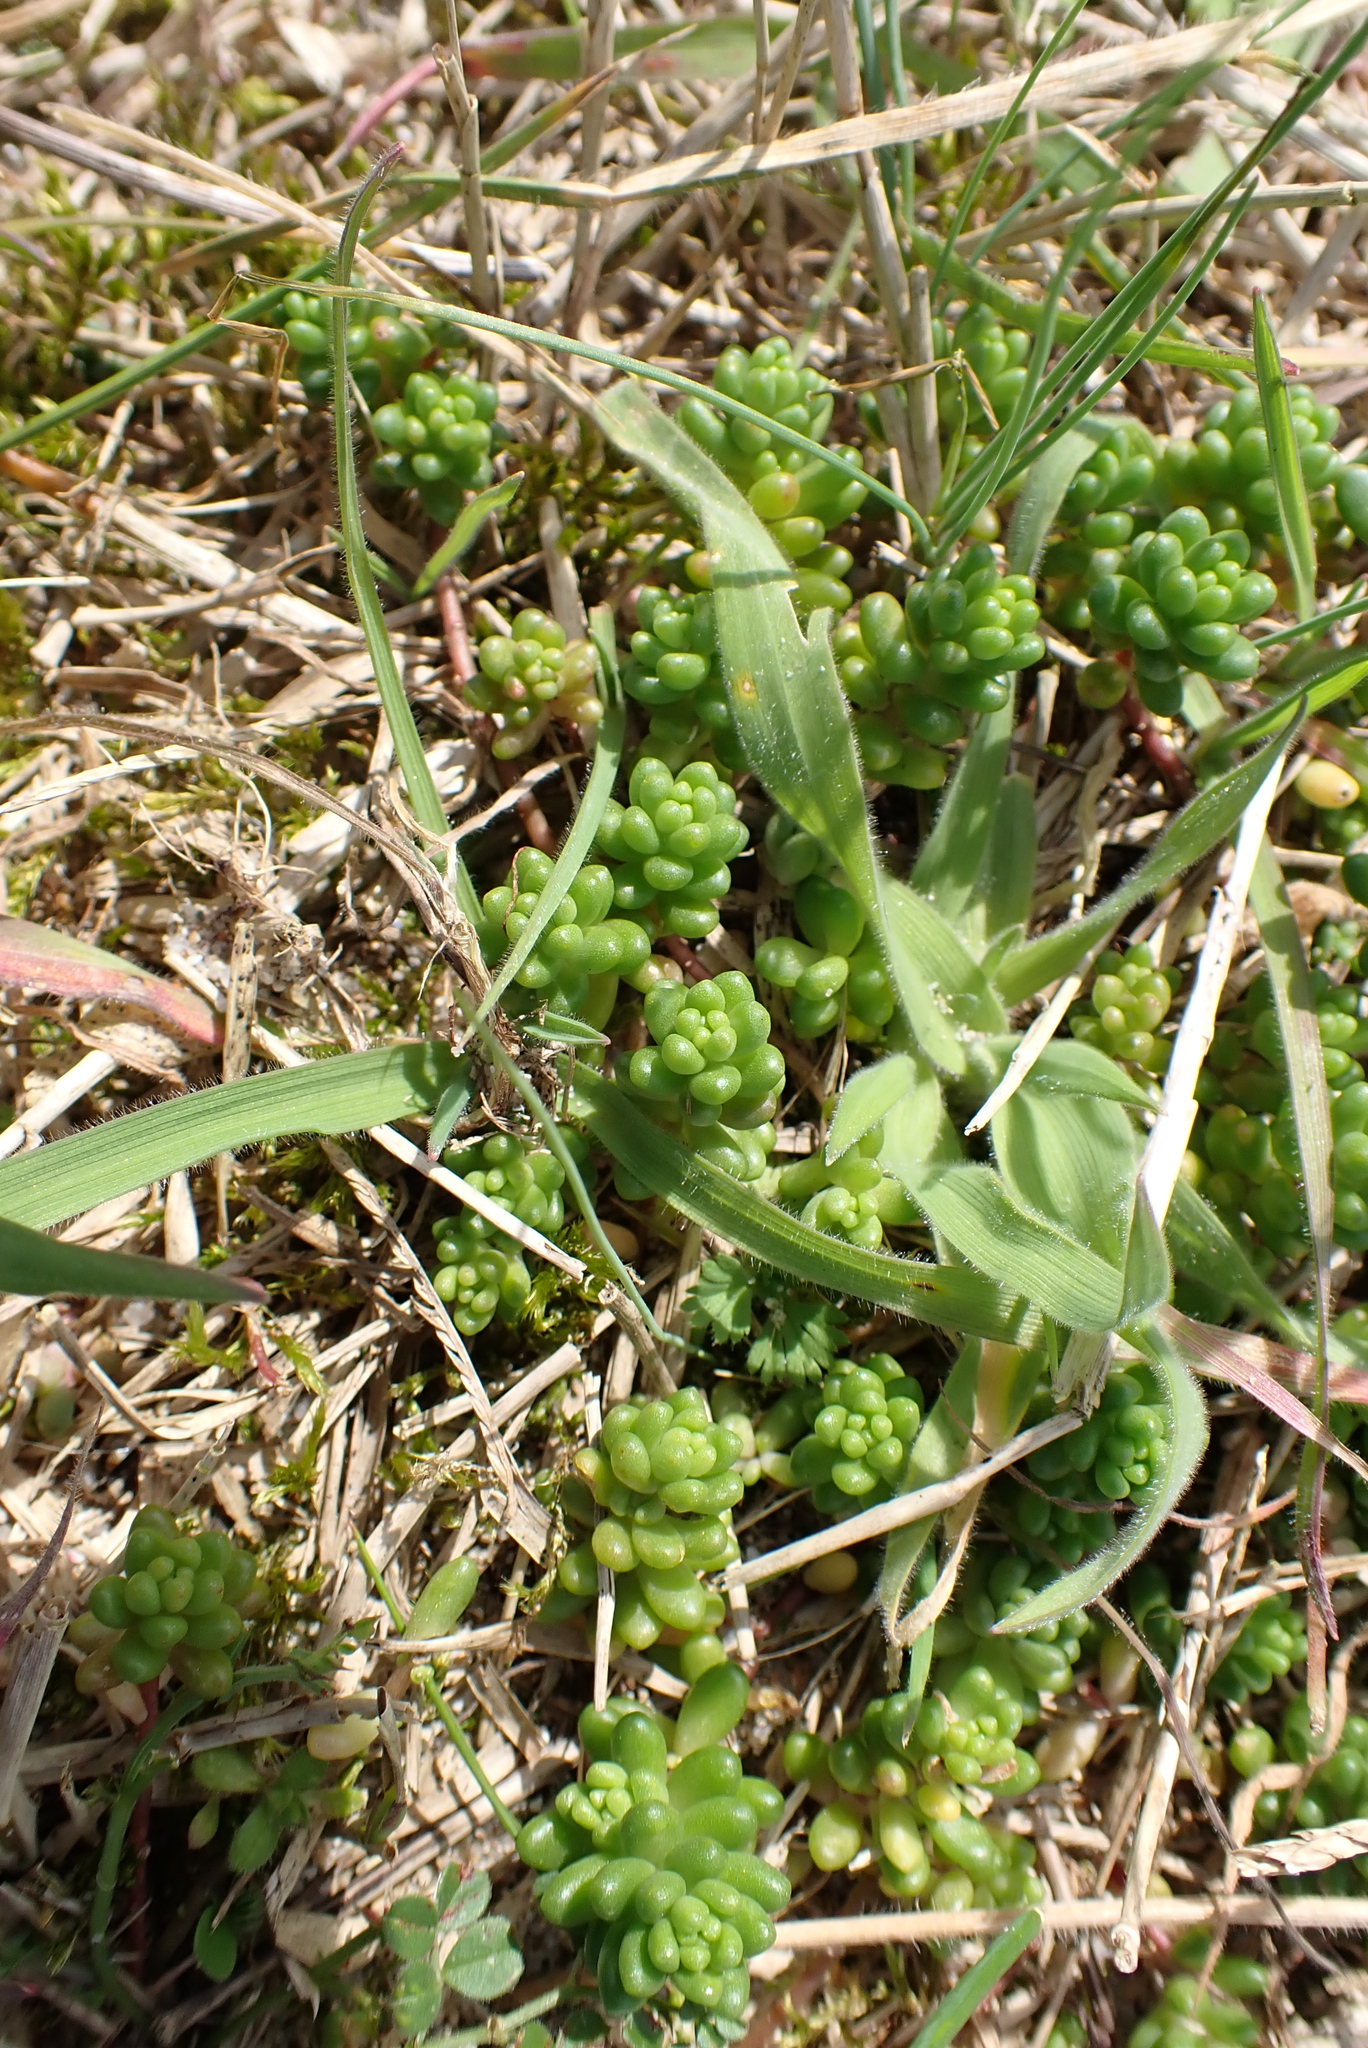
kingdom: Plantae
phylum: Tracheophyta
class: Magnoliopsida
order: Saxifragales
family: Crassulaceae
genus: Sedum
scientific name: Sedum album
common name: White stonecrop
